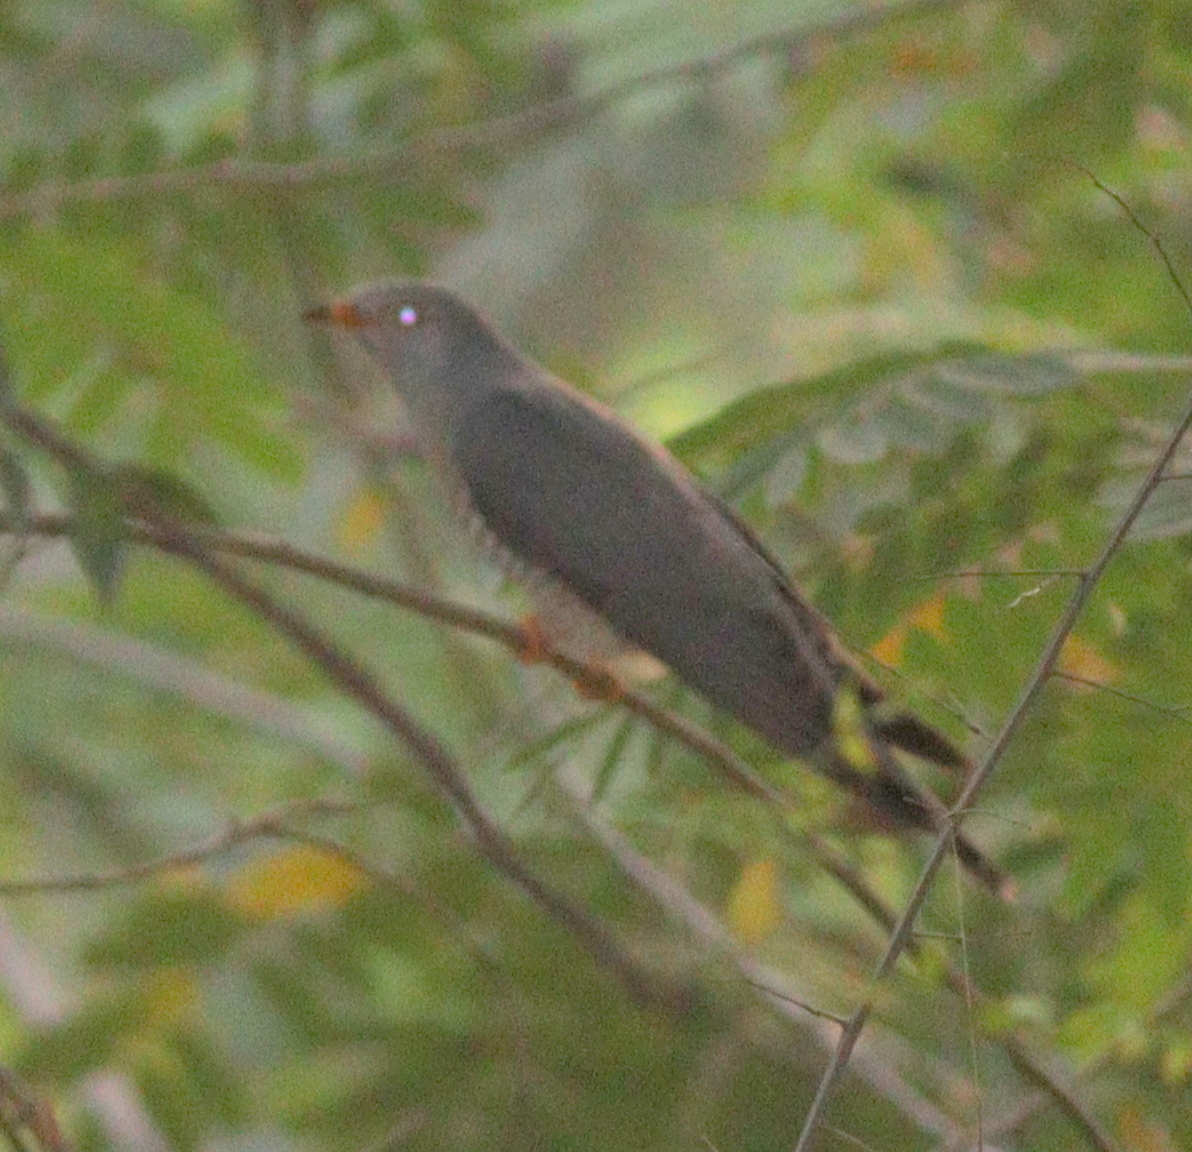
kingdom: Animalia
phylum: Chordata
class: Aves
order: Cuculiformes
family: Cuculidae
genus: Cuculus
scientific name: Cuculus gularis
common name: African cuckoo
